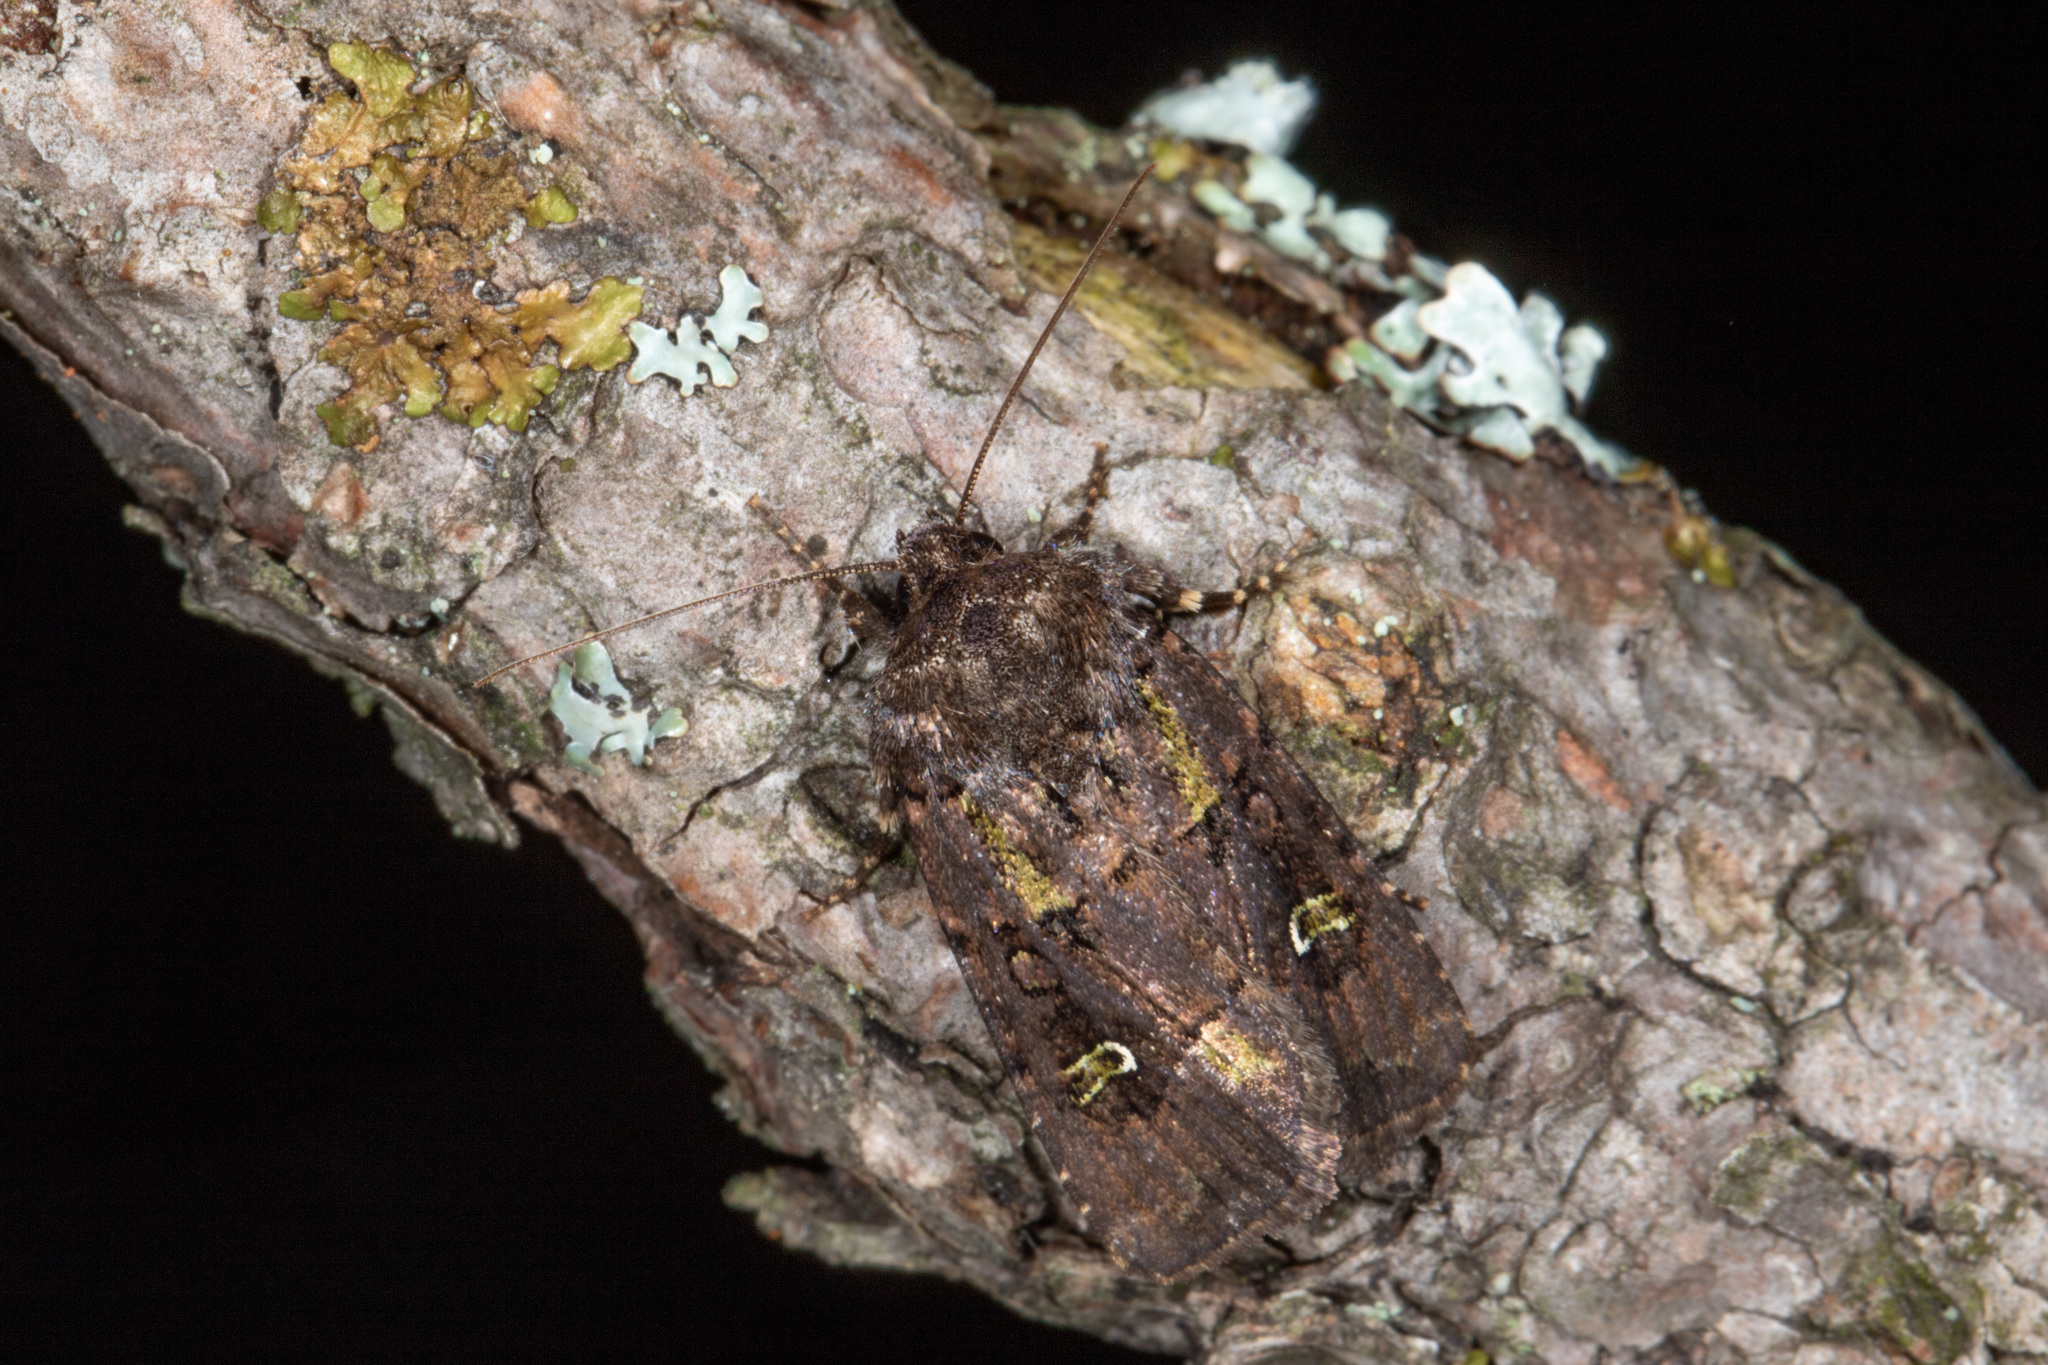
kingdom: Animalia
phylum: Arthropoda
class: Insecta
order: Lepidoptera
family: Noctuidae
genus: Lacinipolia
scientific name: Lacinipolia renigera
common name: Kidney-spotted minor
